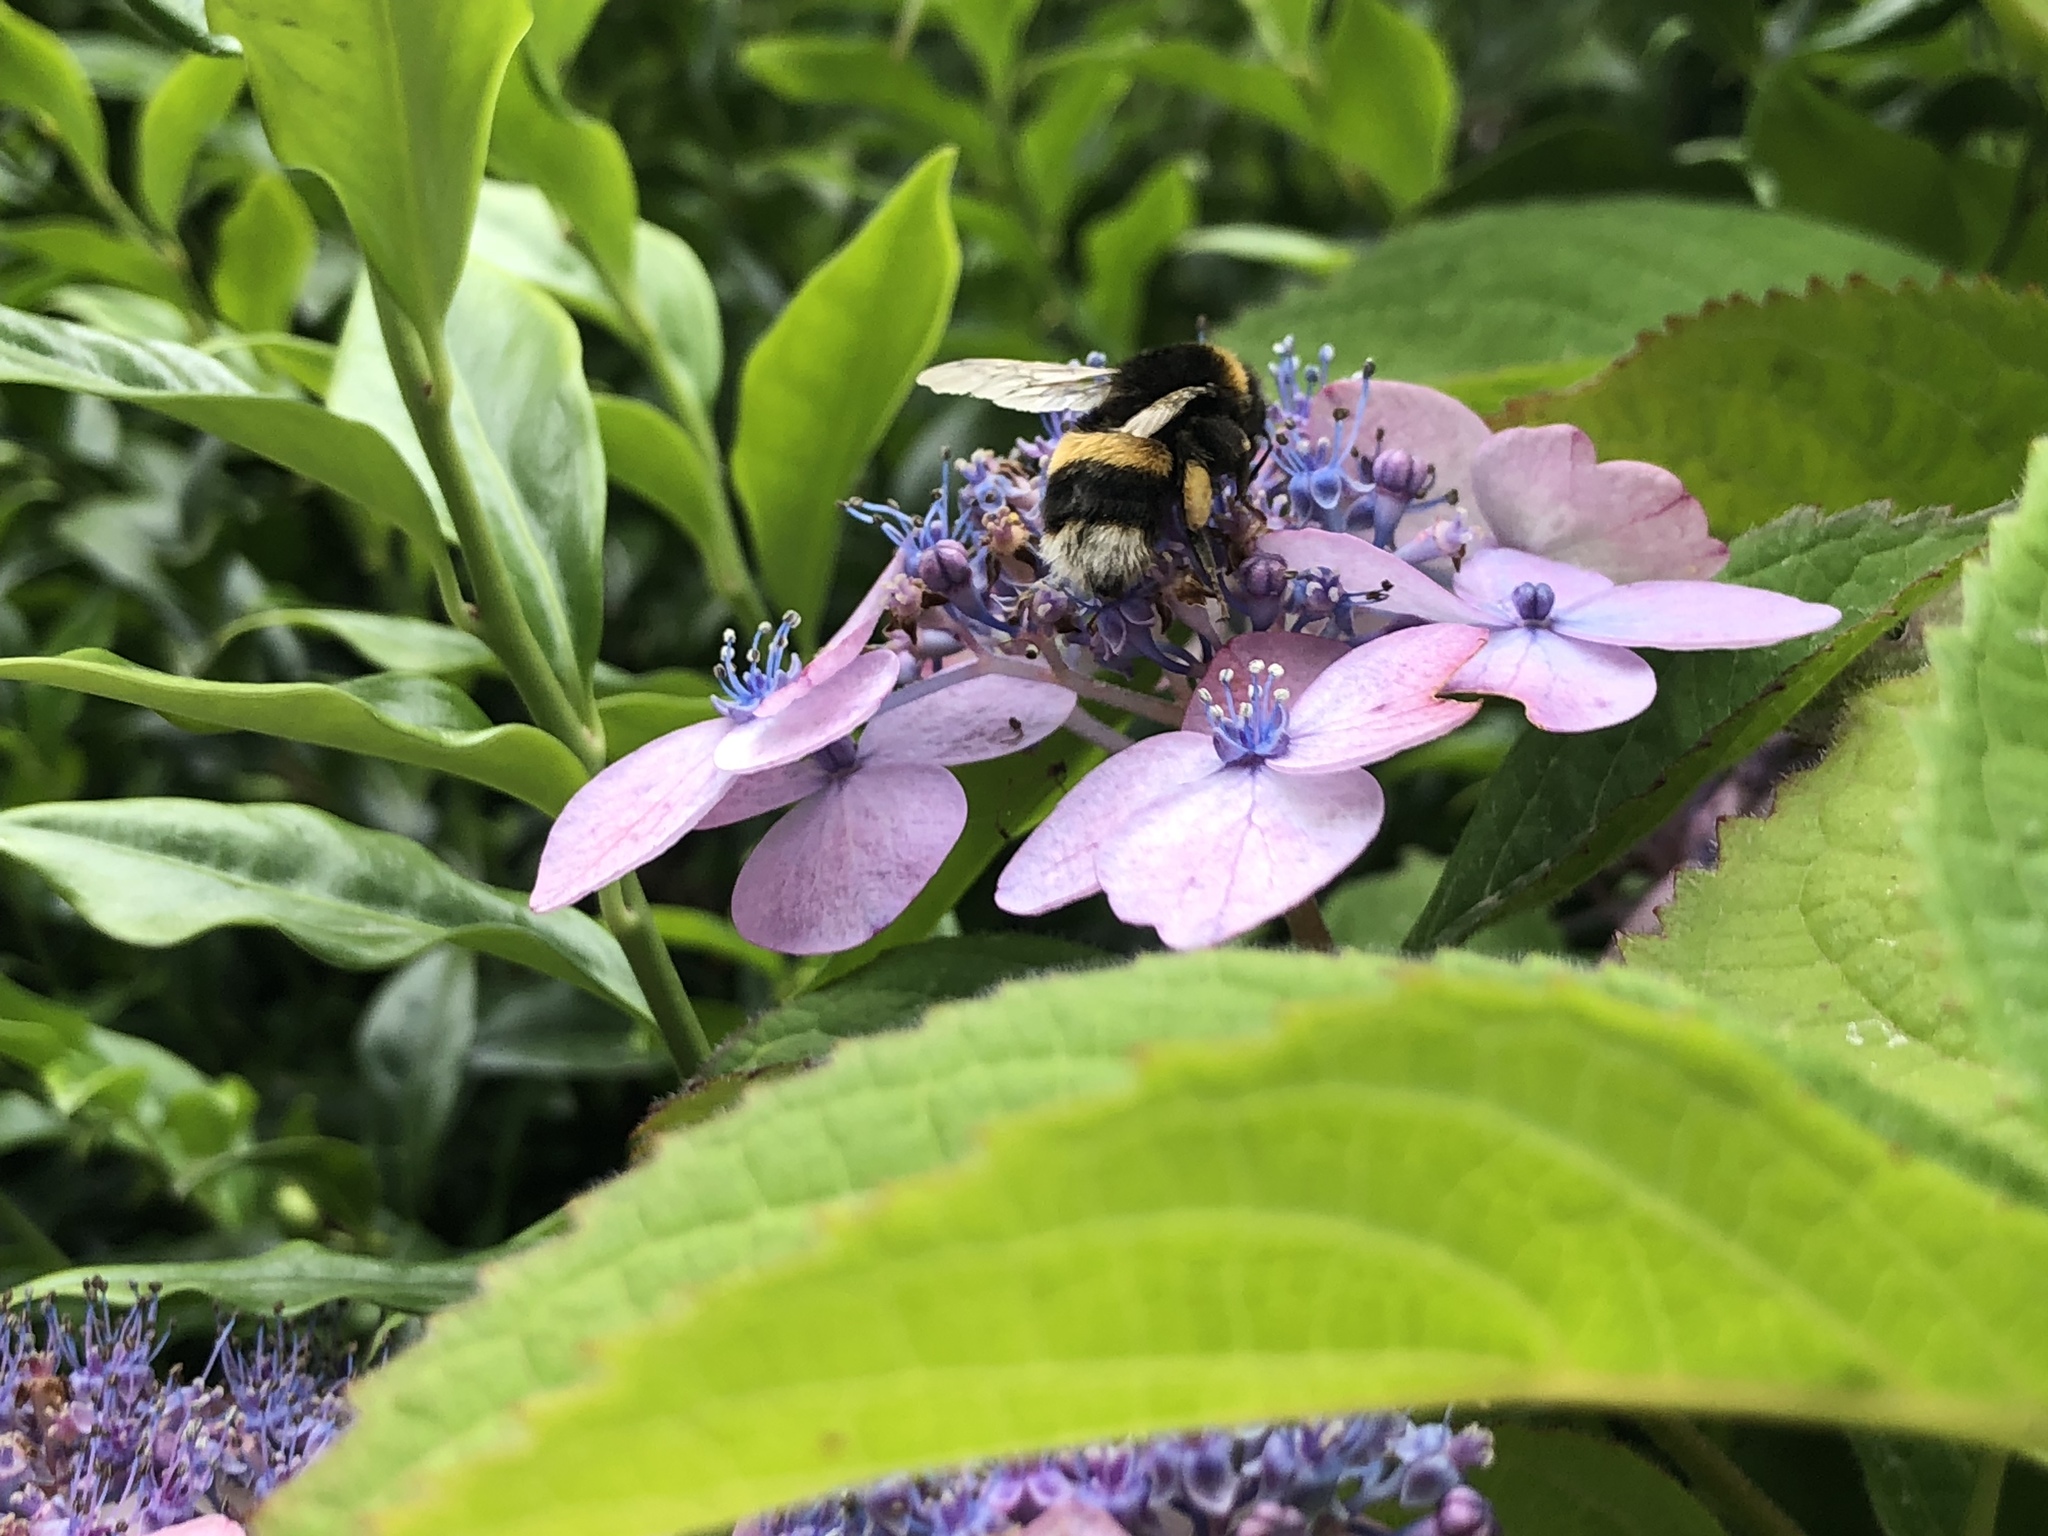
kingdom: Animalia
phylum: Arthropoda
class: Insecta
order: Hymenoptera
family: Apidae
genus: Bombus
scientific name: Bombus terrestris
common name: Buff-tailed bumblebee
